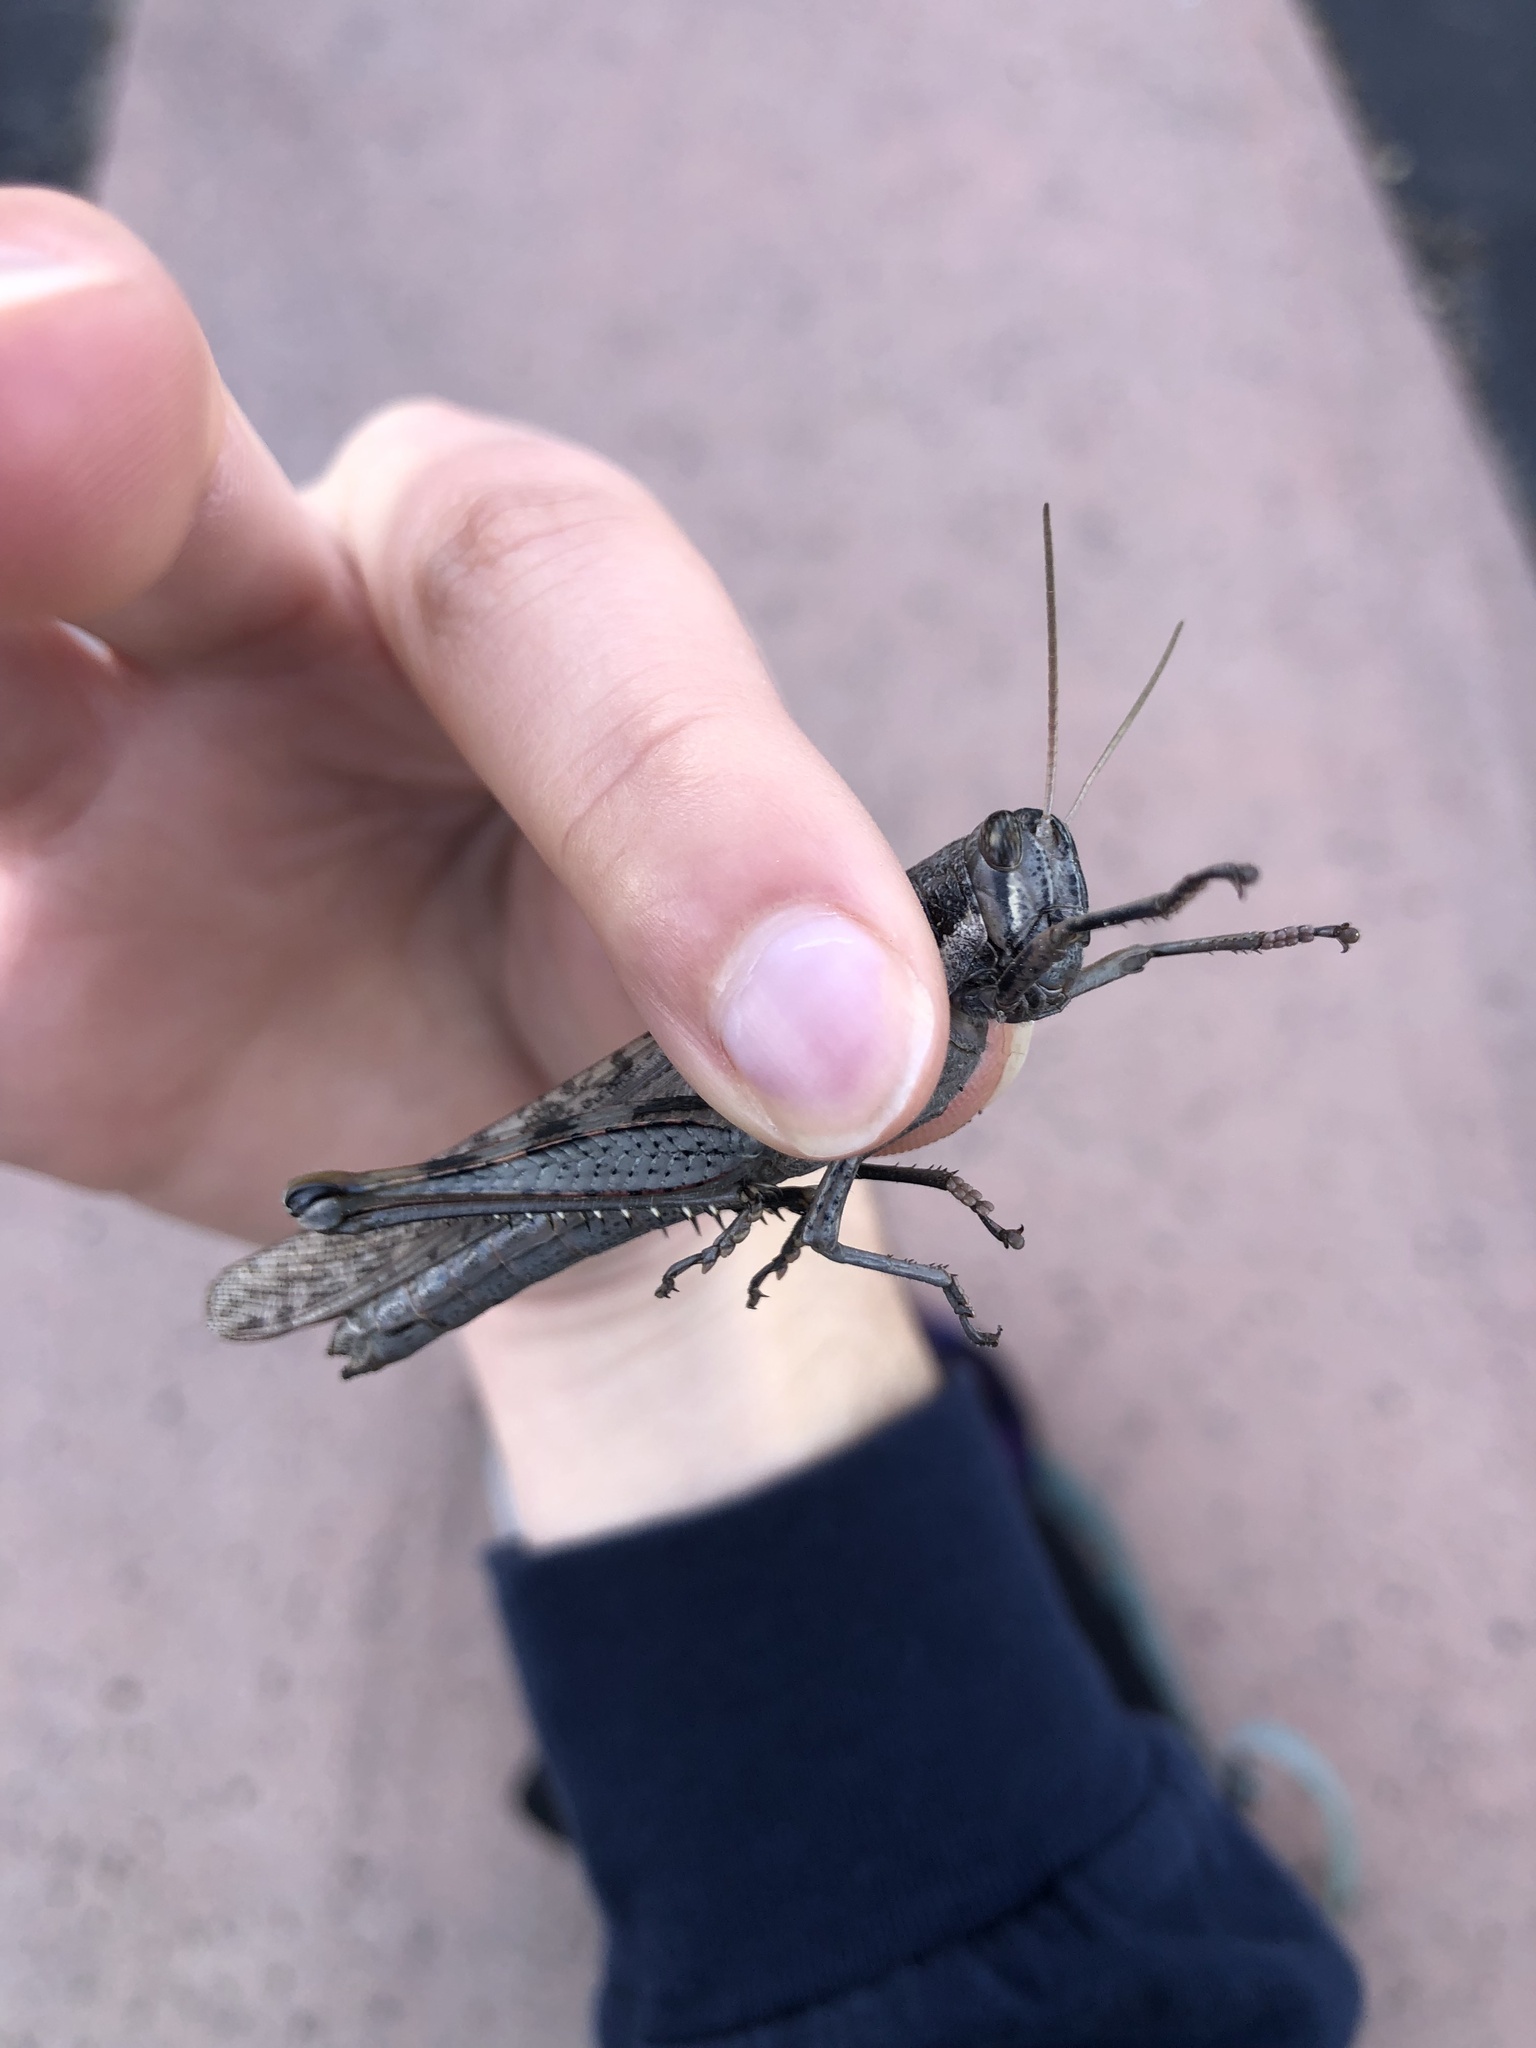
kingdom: Animalia
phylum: Arthropoda
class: Insecta
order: Orthoptera
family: Acrididae
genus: Schistocerca
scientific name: Schistocerca nitens
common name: Vagrant grasshopper
